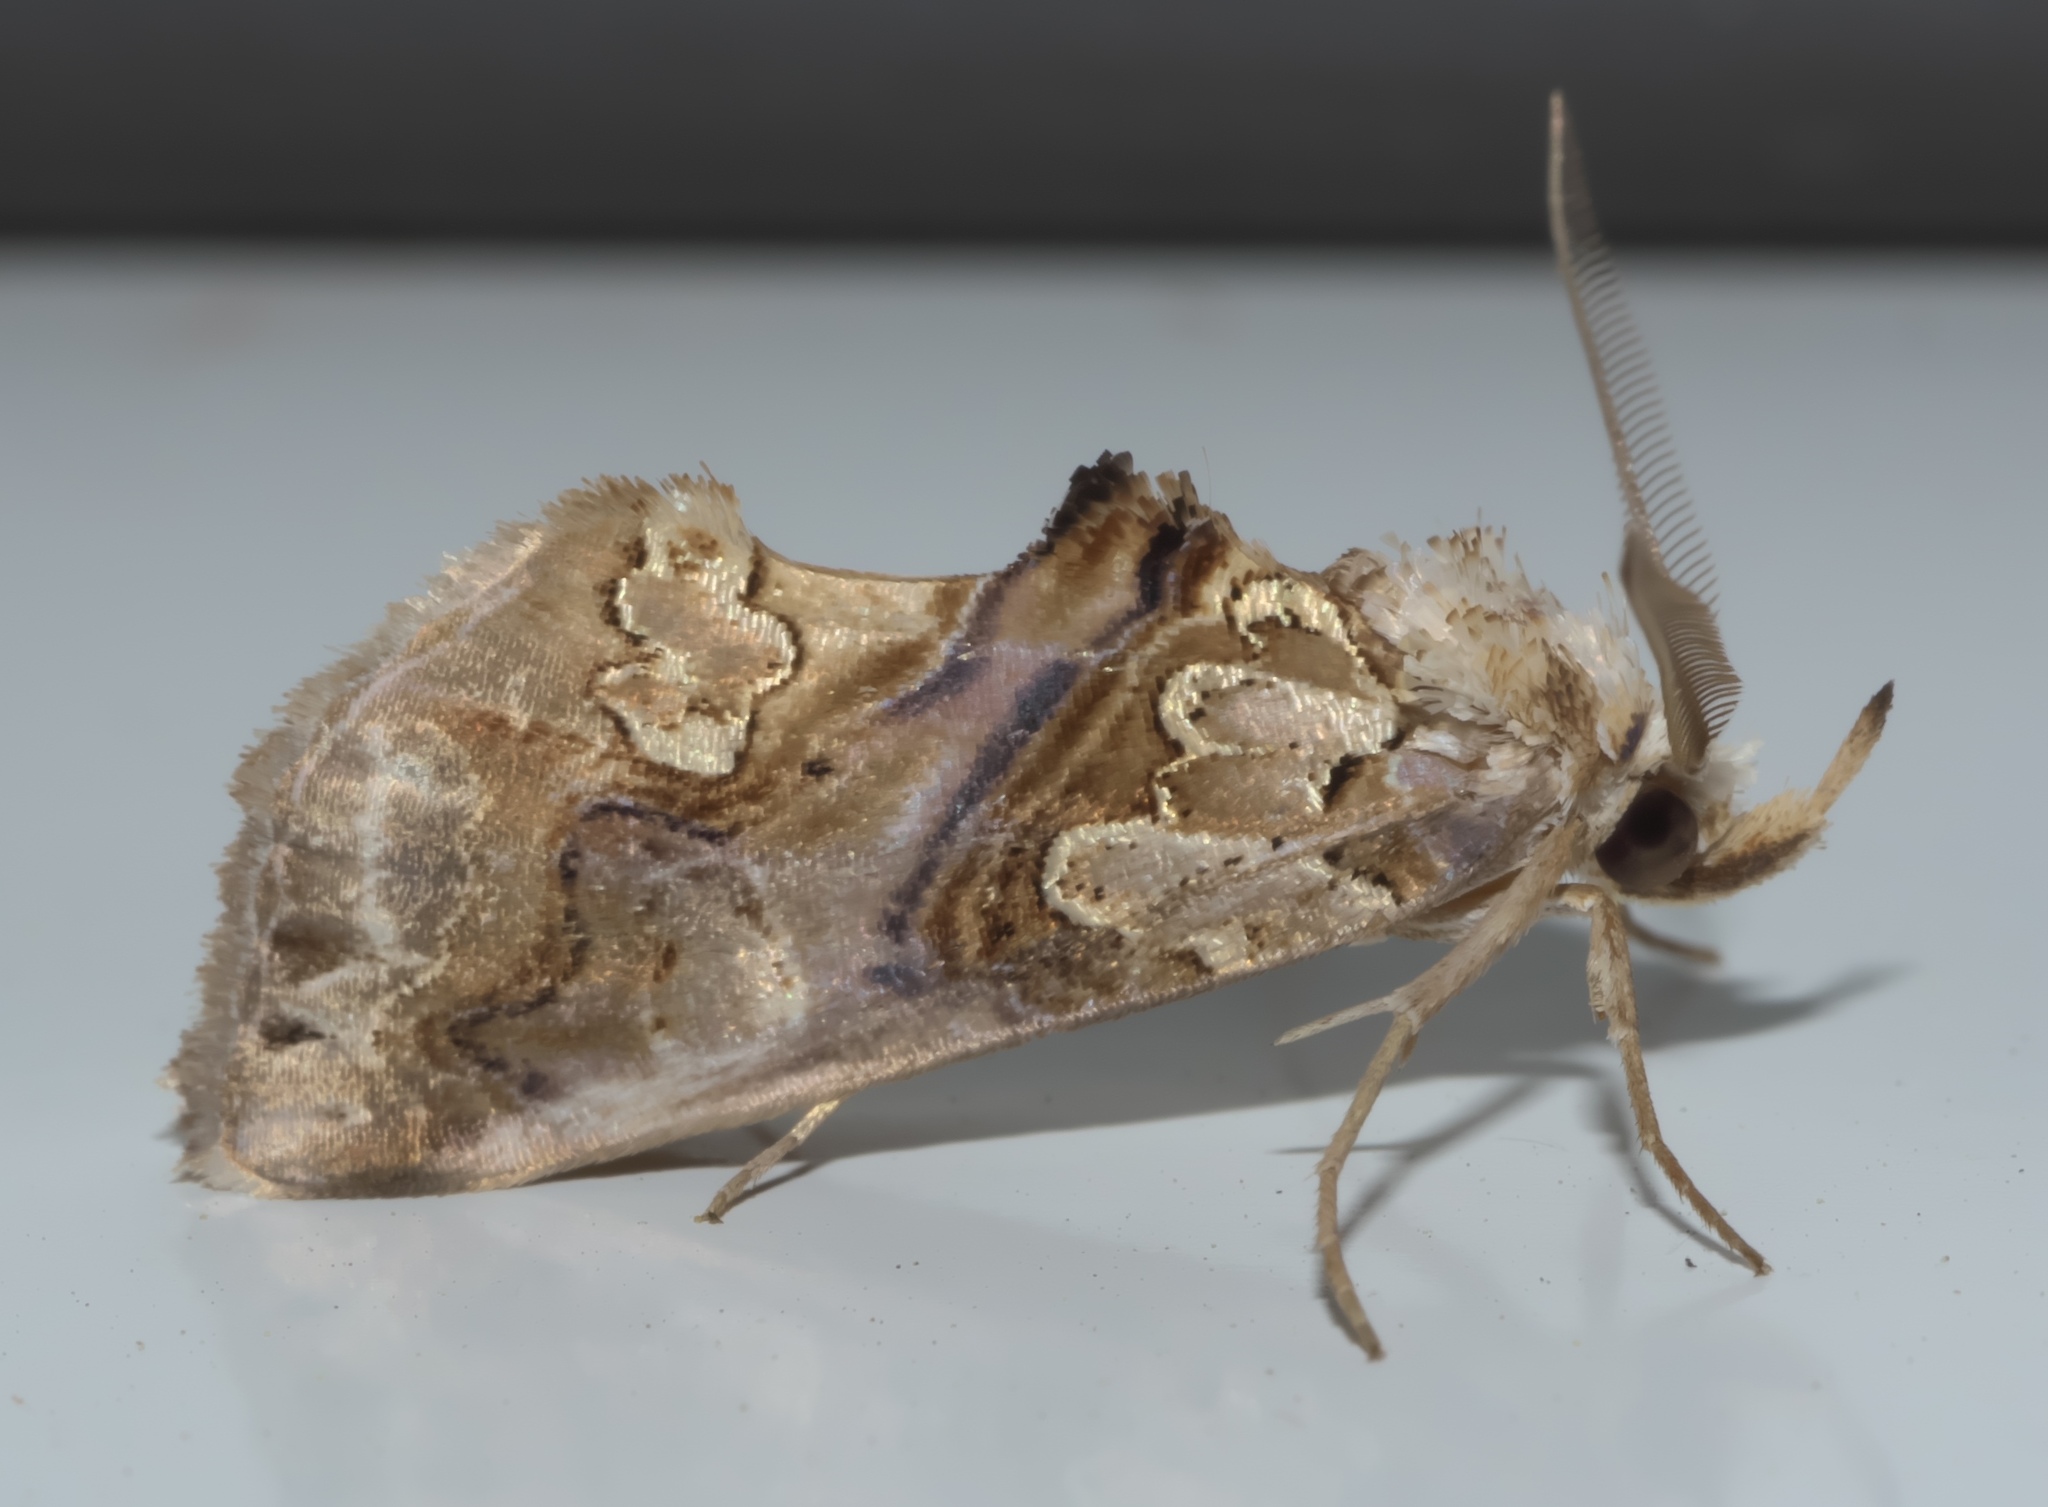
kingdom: Animalia
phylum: Arthropoda
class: Insecta
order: Lepidoptera
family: Erebidae
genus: Plusiodonta
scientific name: Plusiodonta compressipalpis
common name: Moonseed moth
